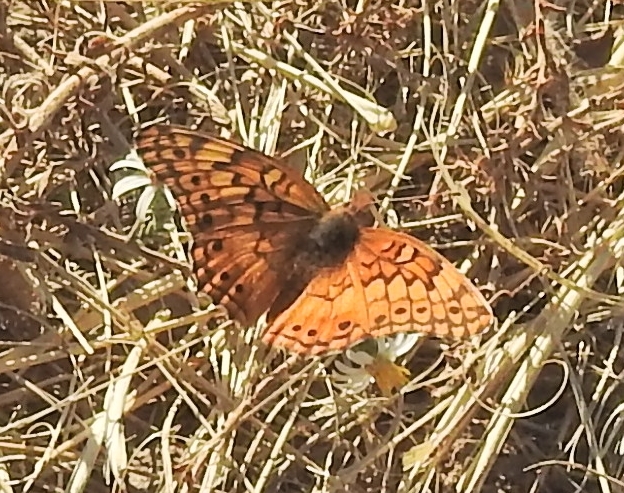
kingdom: Animalia
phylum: Arthropoda
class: Insecta
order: Lepidoptera
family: Nymphalidae
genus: Euptoieta
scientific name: Euptoieta claudia
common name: Variegated fritillary
